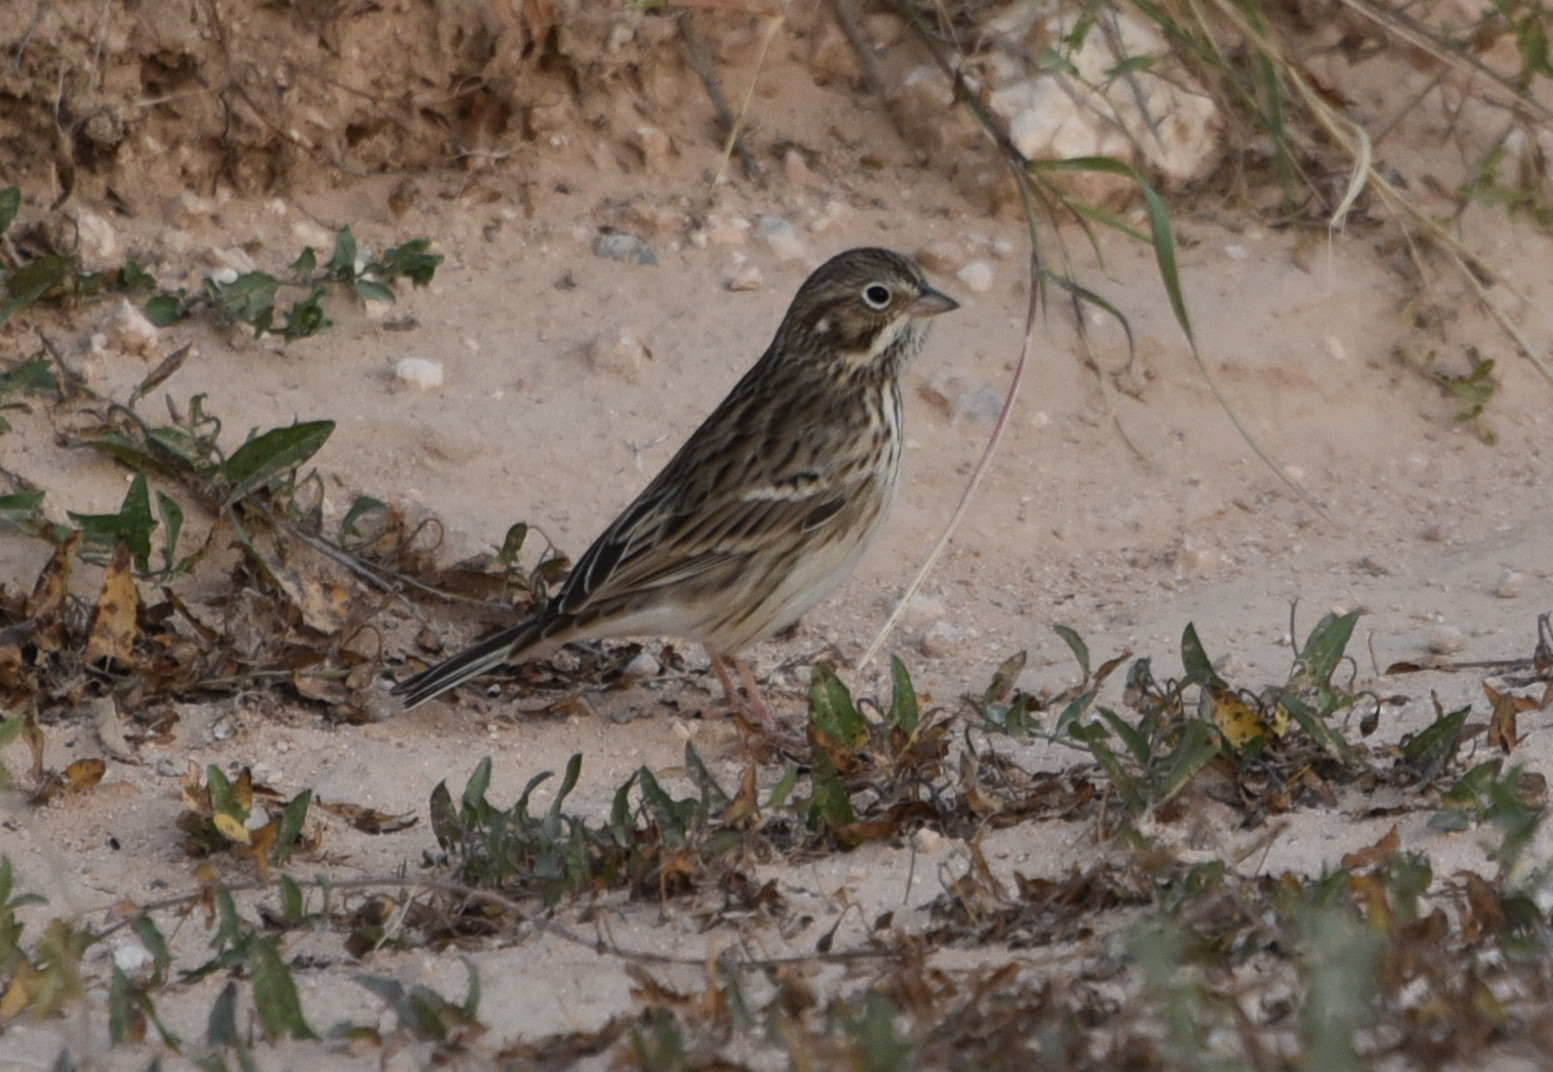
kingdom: Animalia
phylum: Chordata
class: Aves
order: Passeriformes
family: Passerellidae
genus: Pooecetes
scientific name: Pooecetes gramineus
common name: Vesper sparrow
